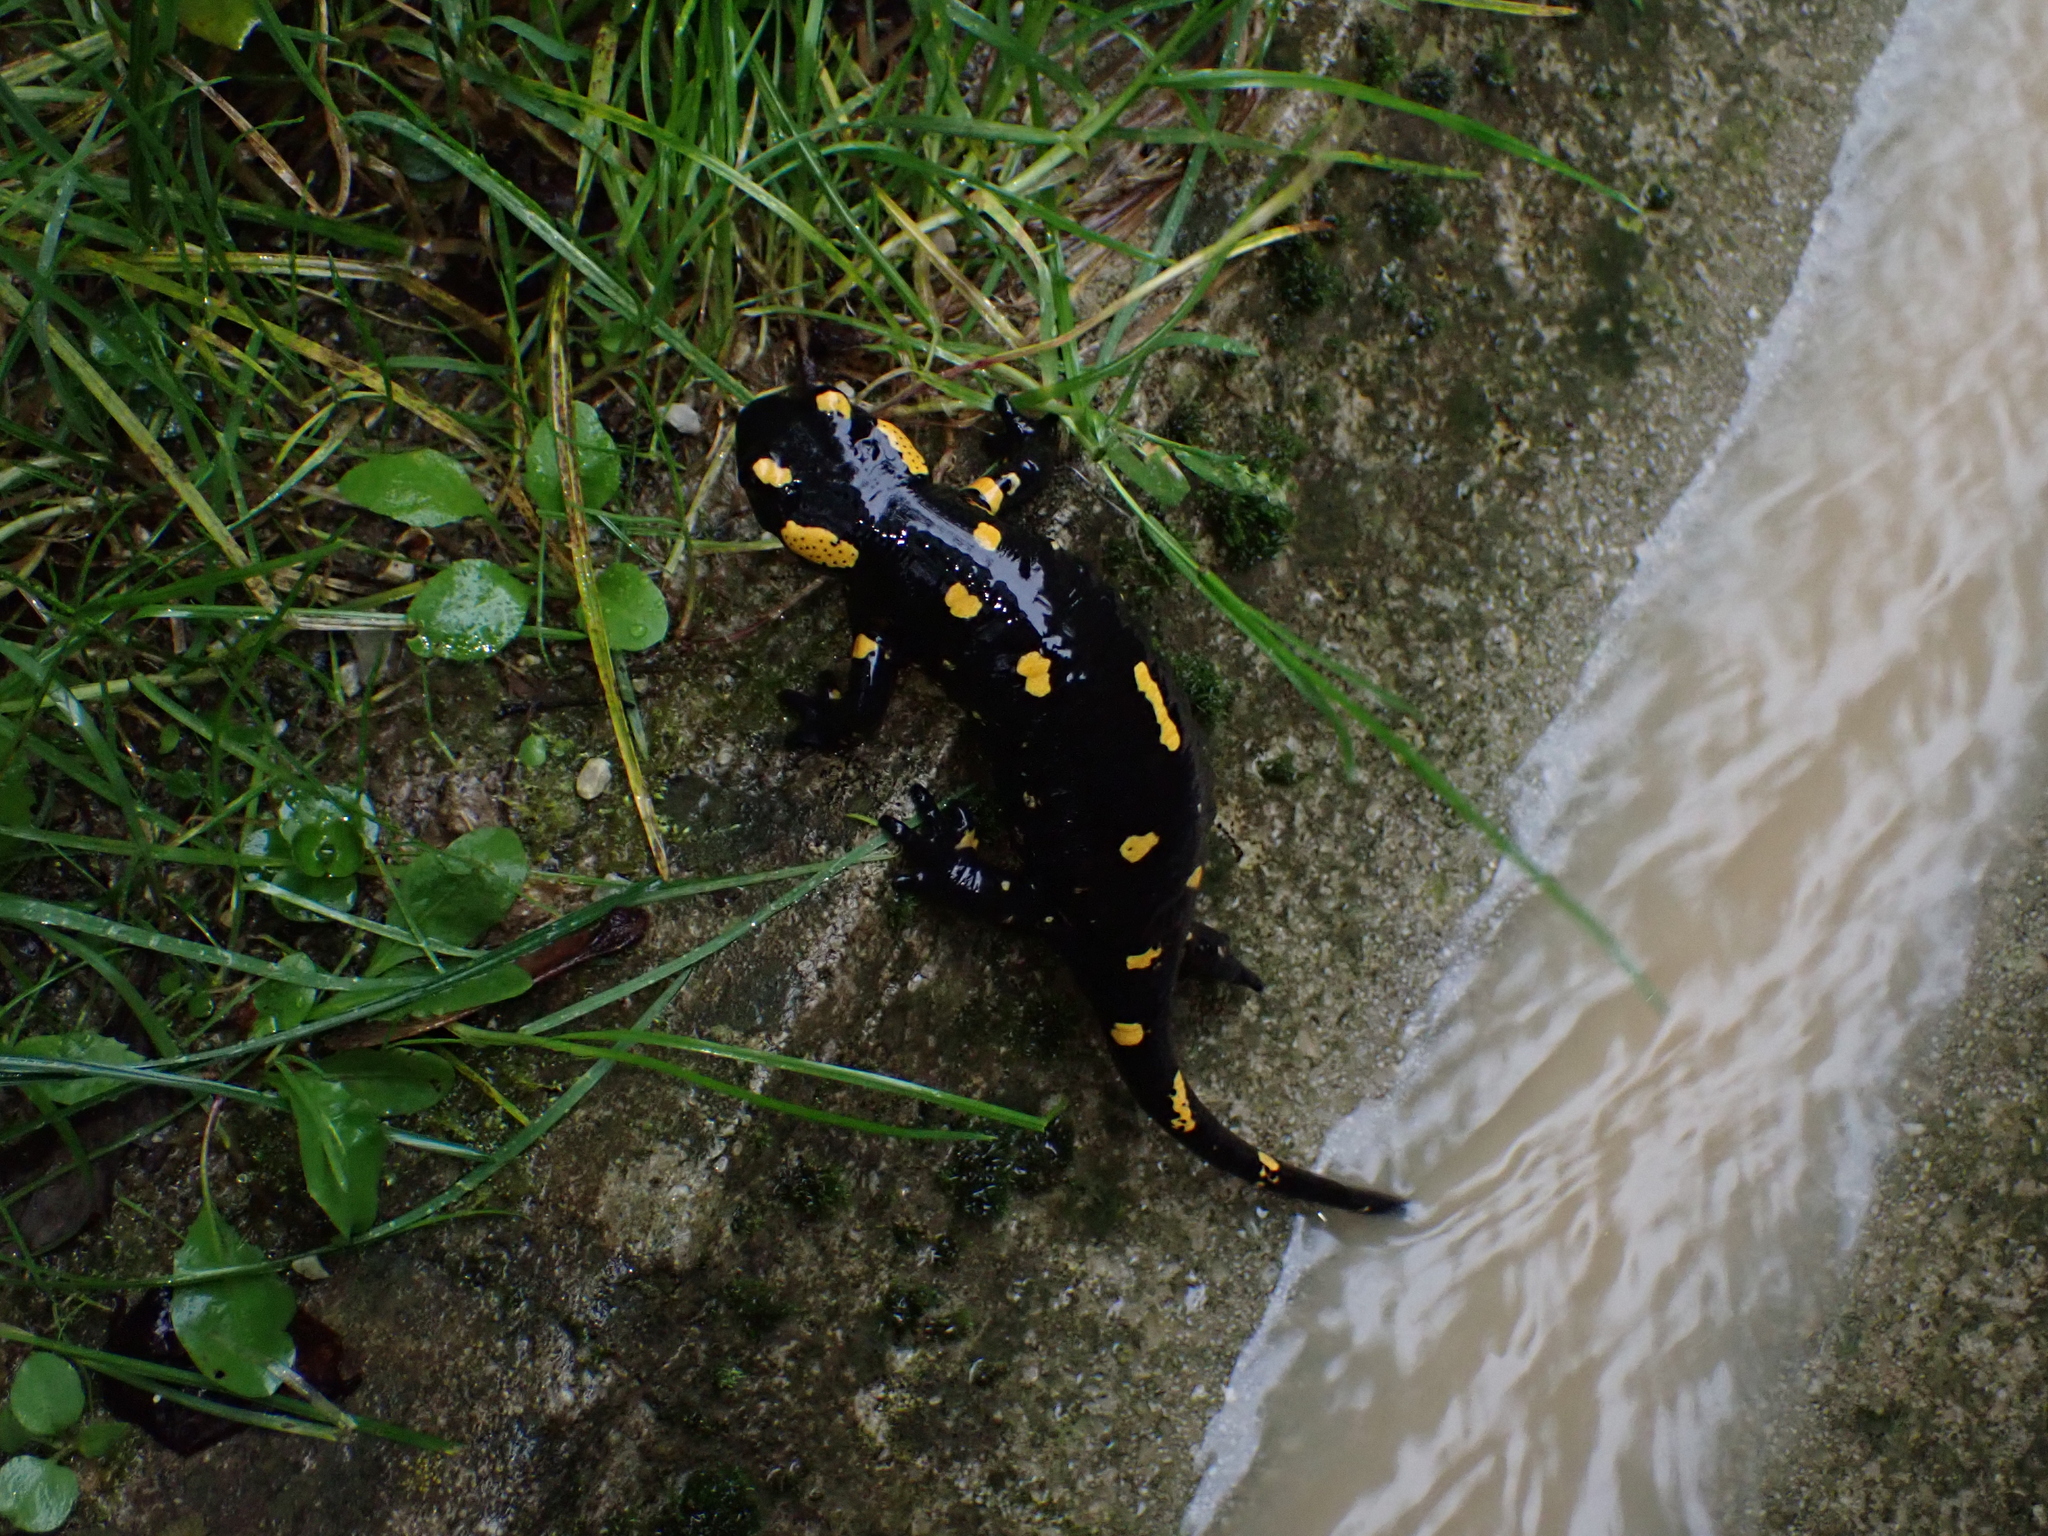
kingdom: Animalia
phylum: Chordata
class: Amphibia
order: Caudata
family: Salamandridae
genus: Salamandra
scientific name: Salamandra salamandra
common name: Fire salamander
